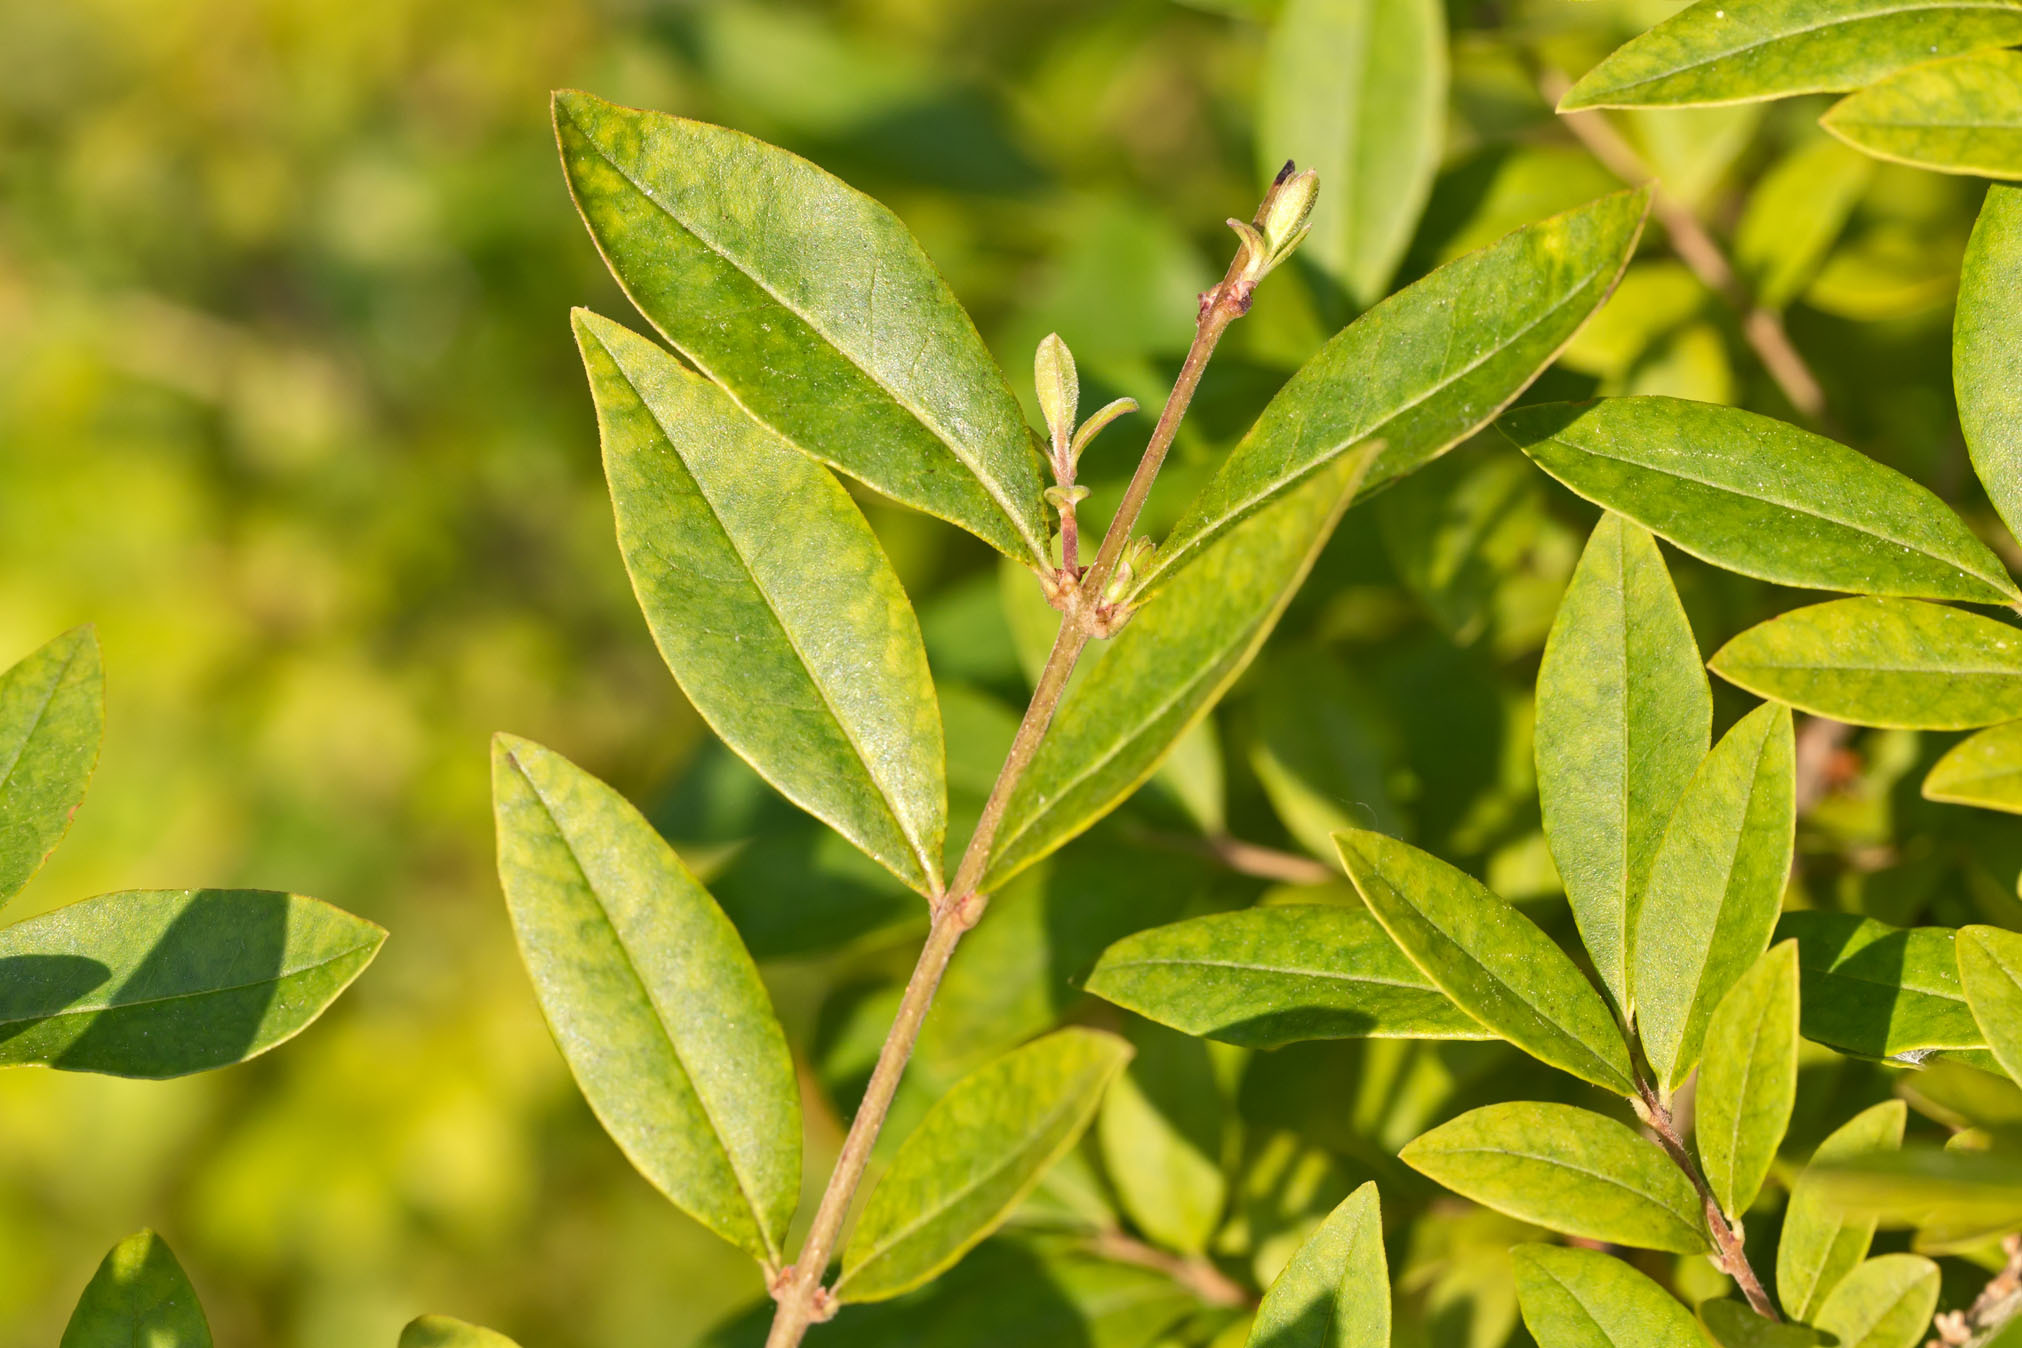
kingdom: Plantae
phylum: Tracheophyta
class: Magnoliopsida
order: Lamiales
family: Oleaceae
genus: Ligustrum
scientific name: Ligustrum obtusifolium
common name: Border privet
